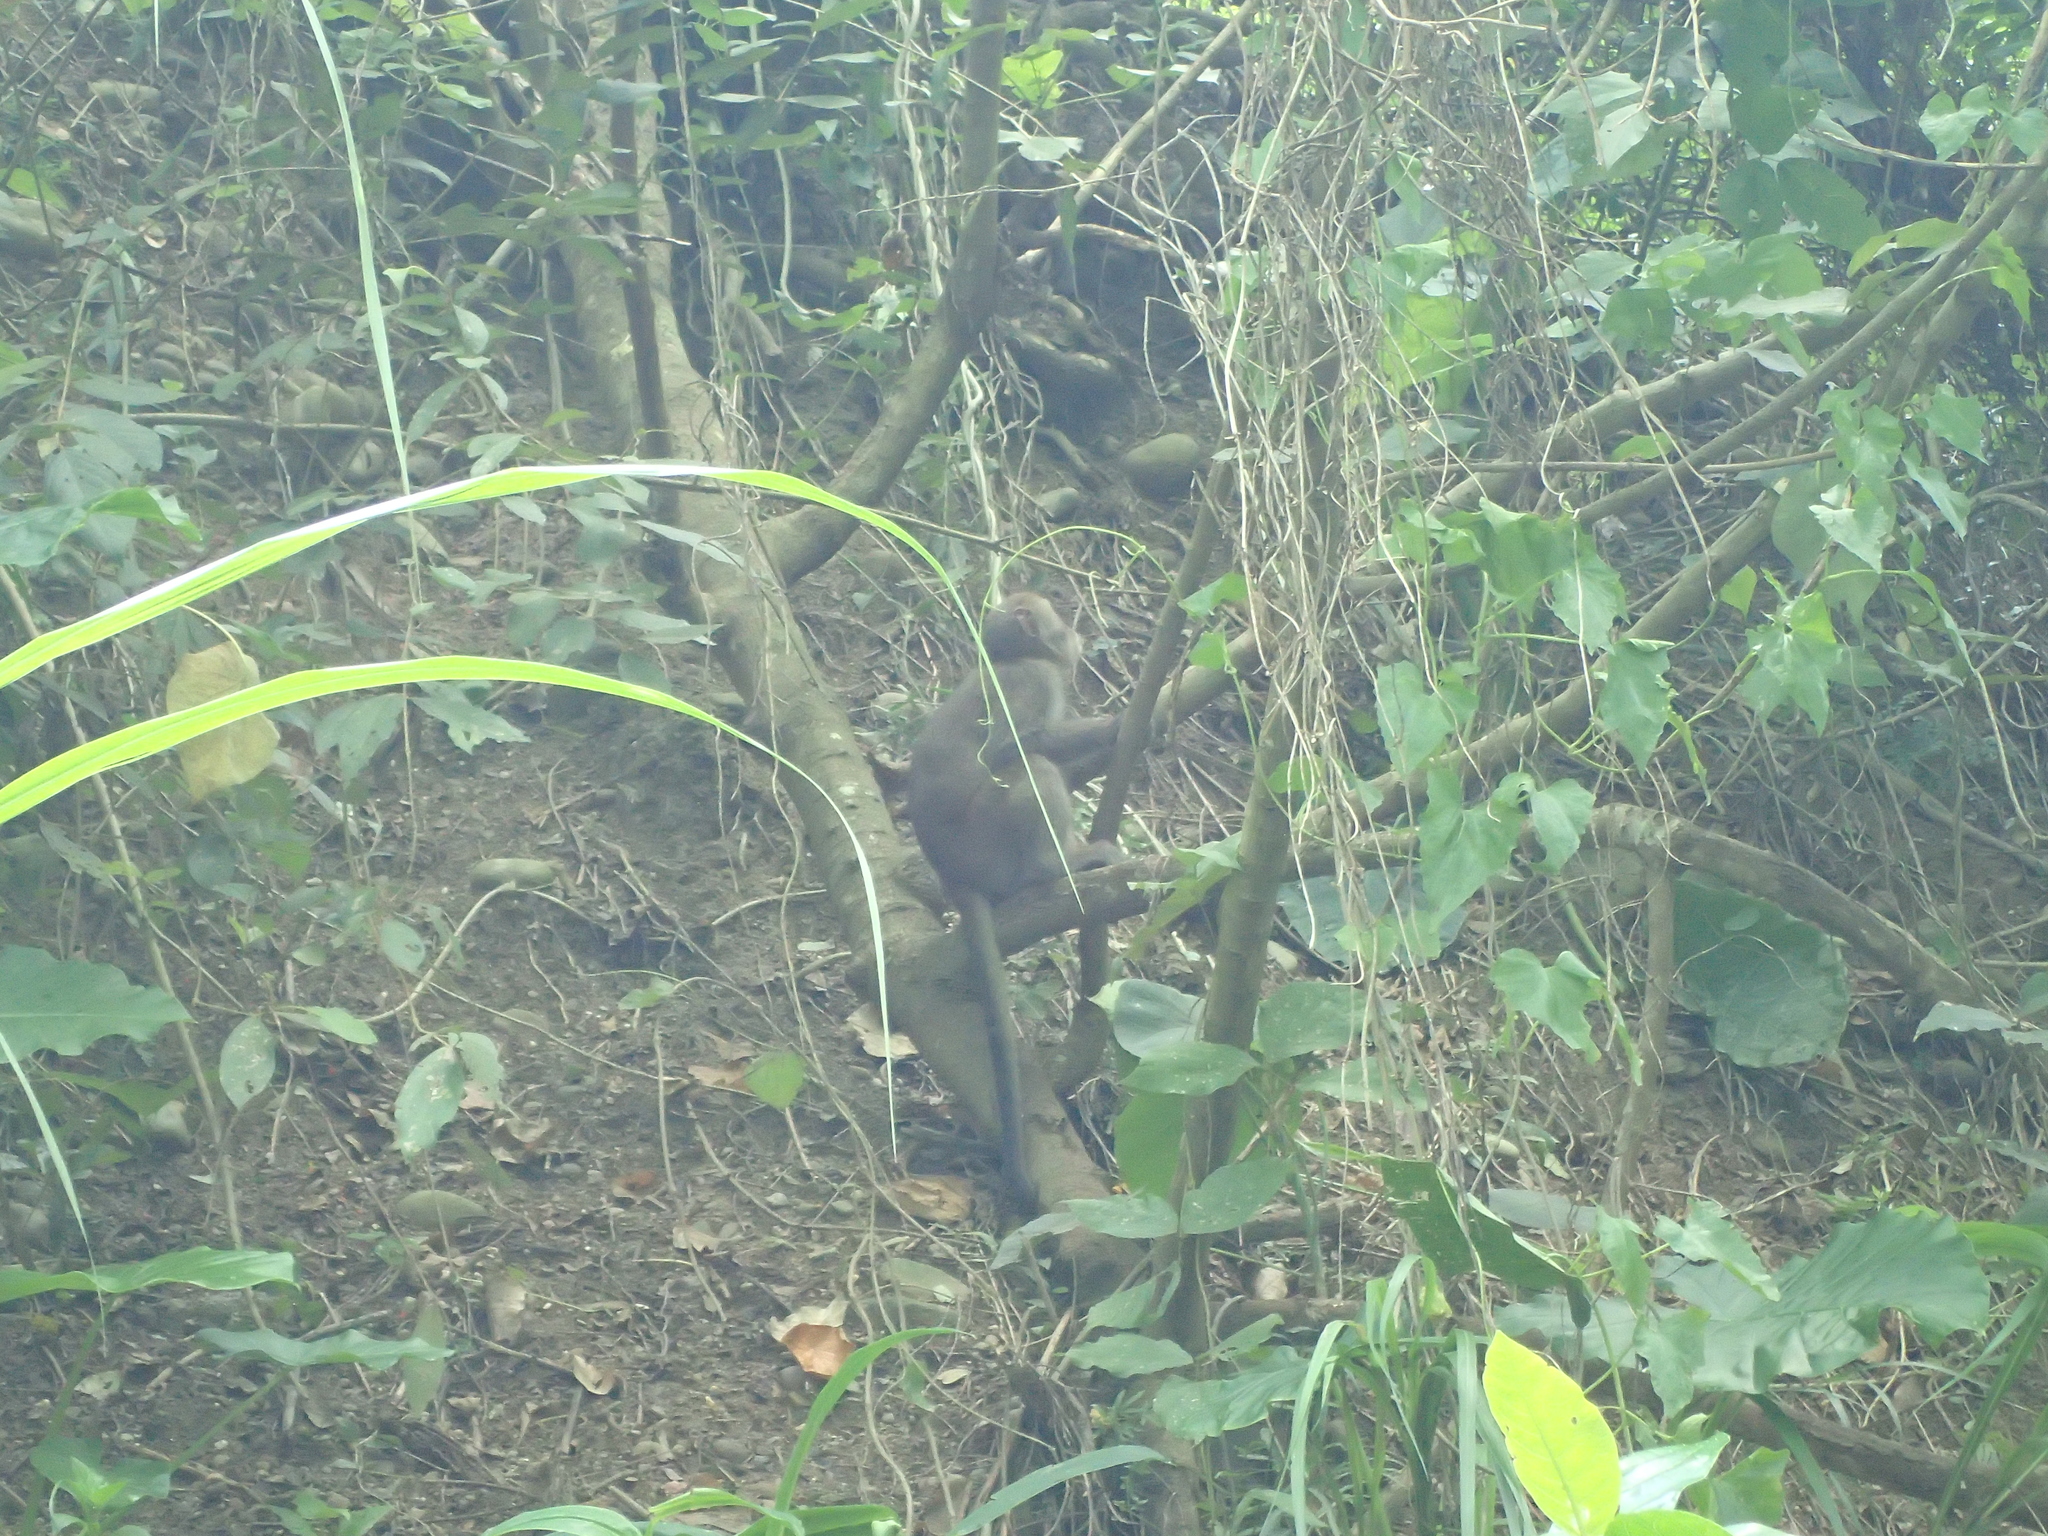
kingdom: Animalia
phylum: Chordata
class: Mammalia
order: Primates
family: Cercopithecidae
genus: Macaca
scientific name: Macaca cyclopis
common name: Formosan rock macaque
